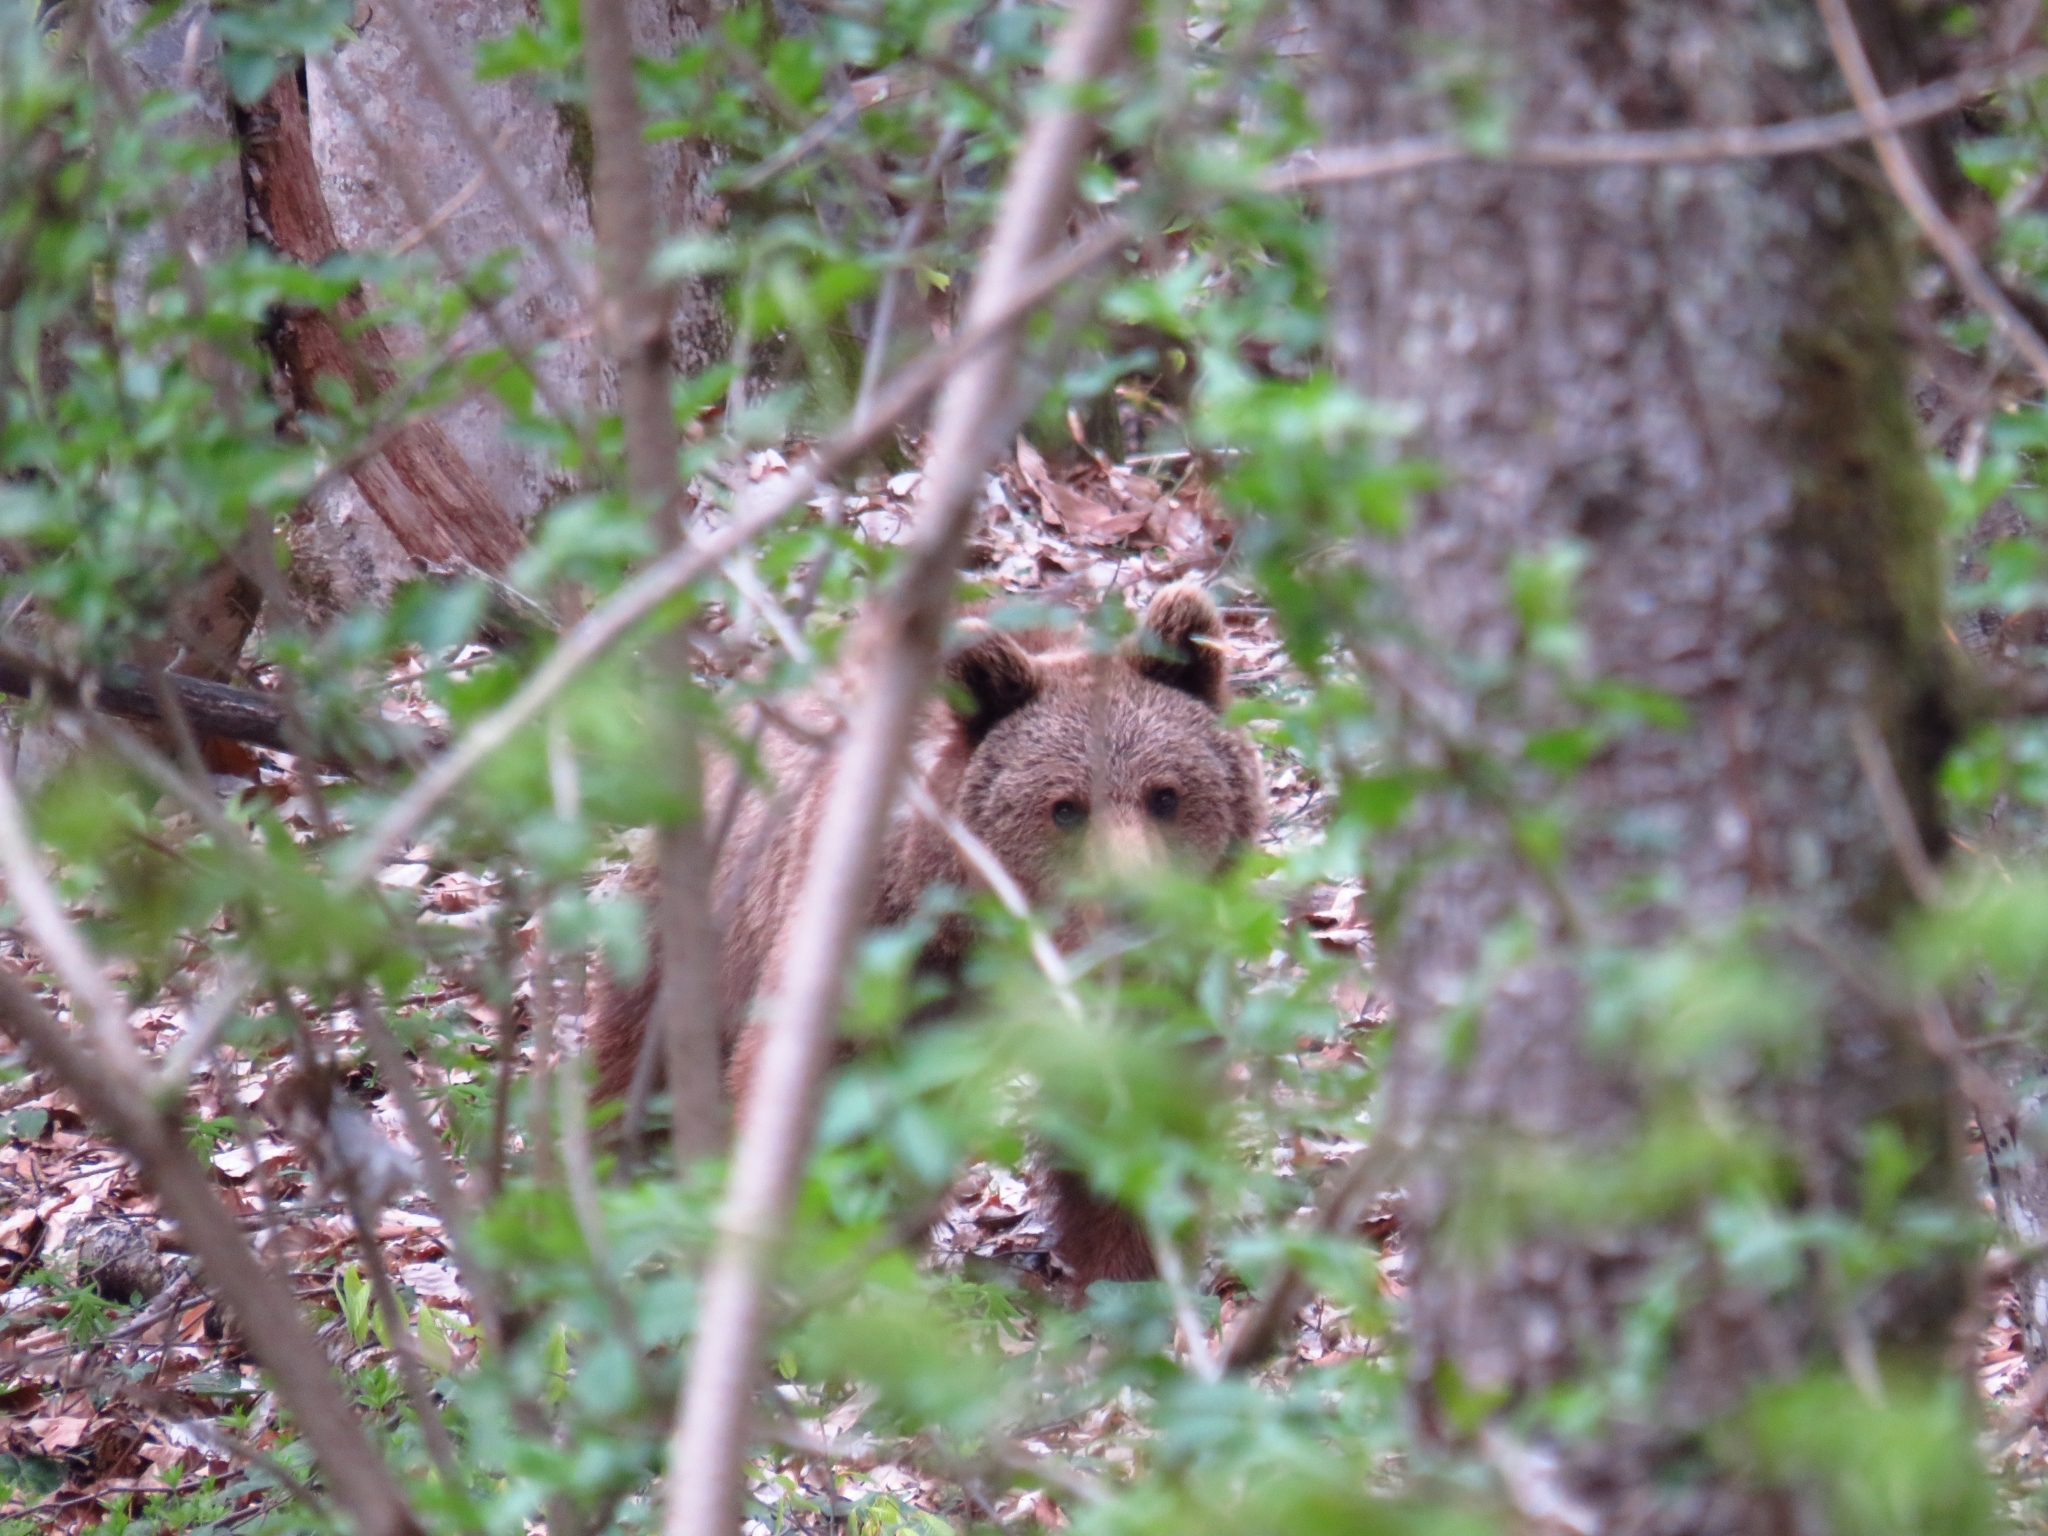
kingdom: Animalia
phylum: Chordata
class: Mammalia
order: Carnivora
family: Ursidae
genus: Ursus
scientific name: Ursus arctos
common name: Brown bear
